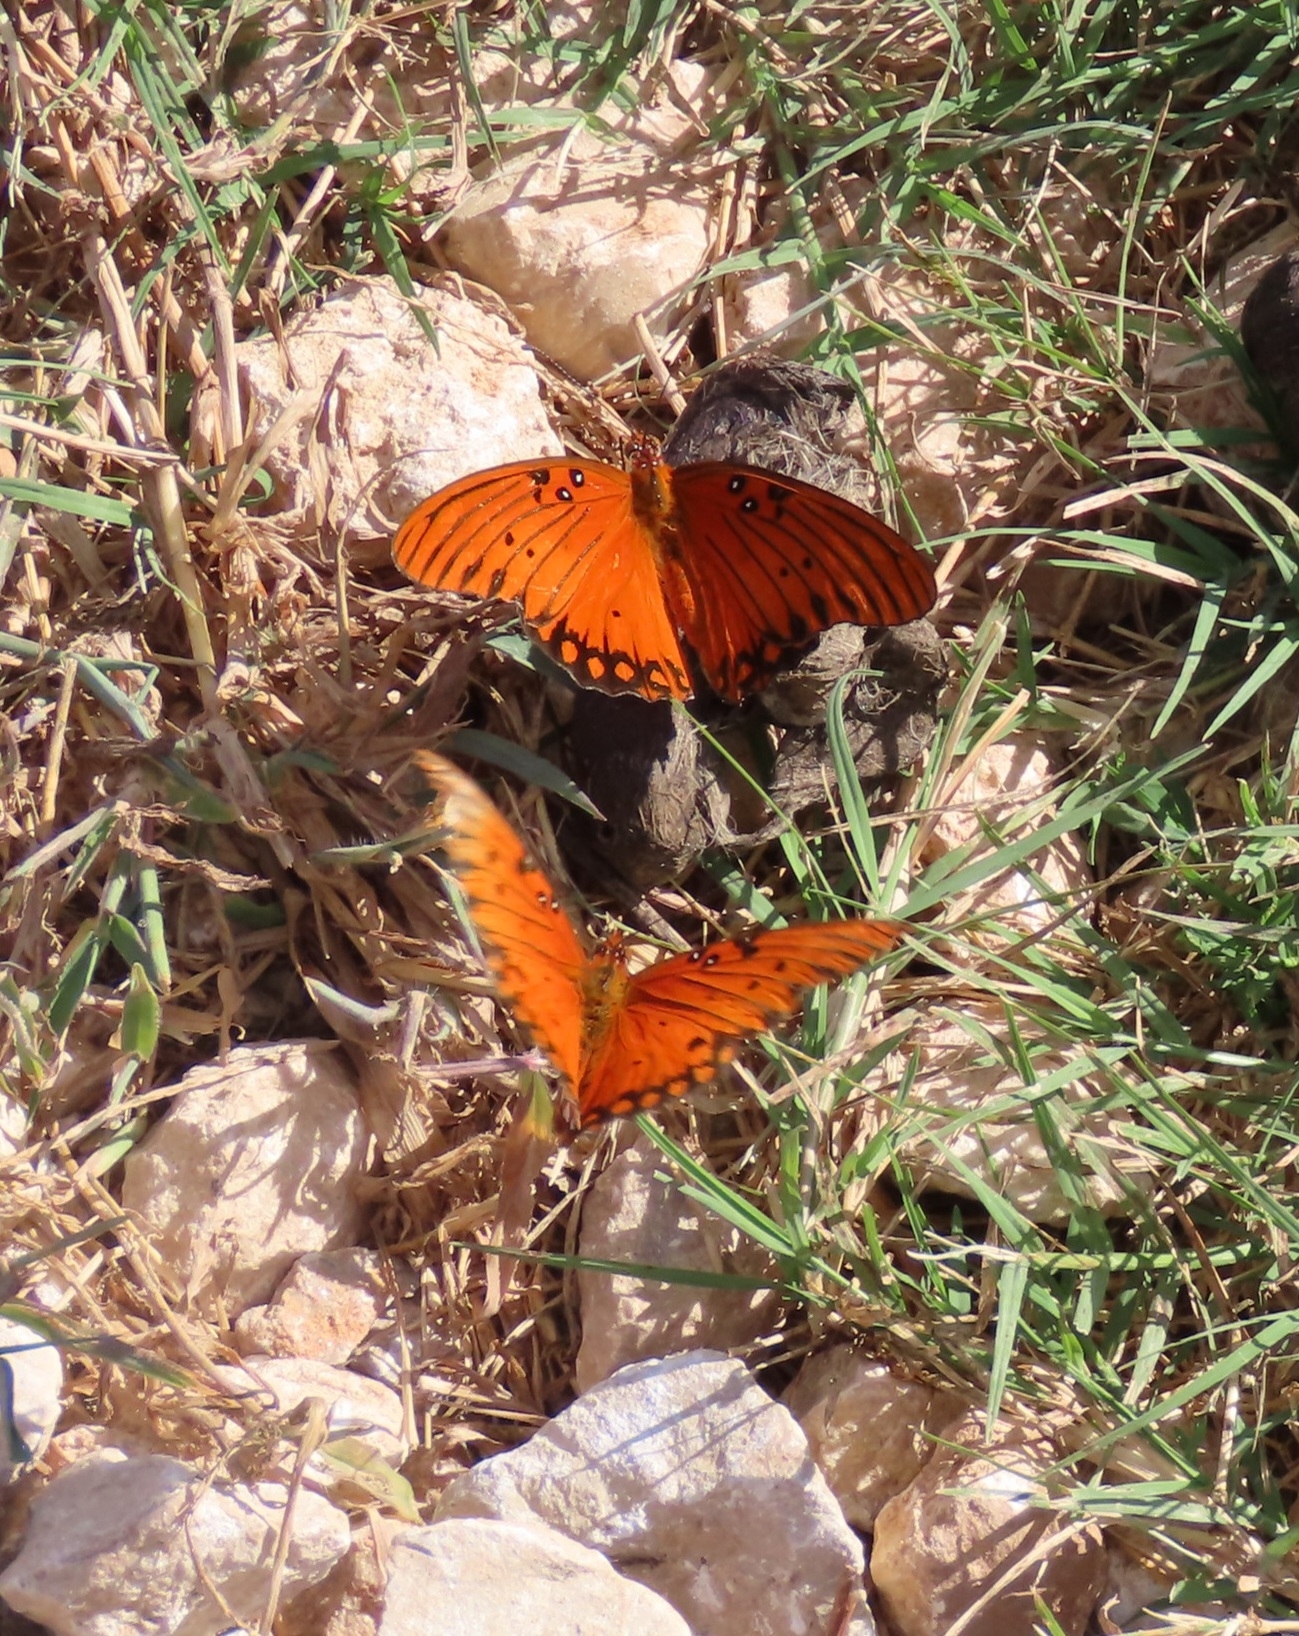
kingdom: Animalia
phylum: Arthropoda
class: Insecta
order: Lepidoptera
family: Nymphalidae
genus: Dione
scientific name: Dione vanillae
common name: Gulf fritillary
